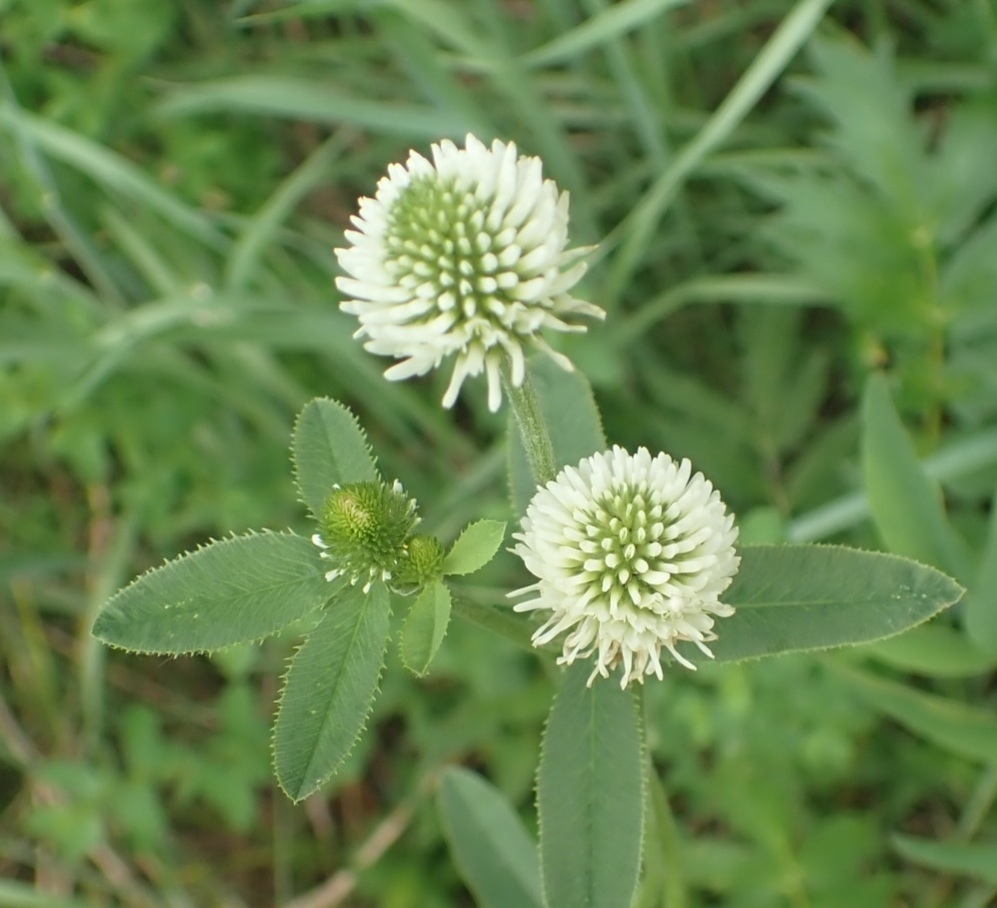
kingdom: Plantae
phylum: Tracheophyta
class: Magnoliopsida
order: Fabales
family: Fabaceae
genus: Trifolium
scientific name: Trifolium montanum
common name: Mountain clover
